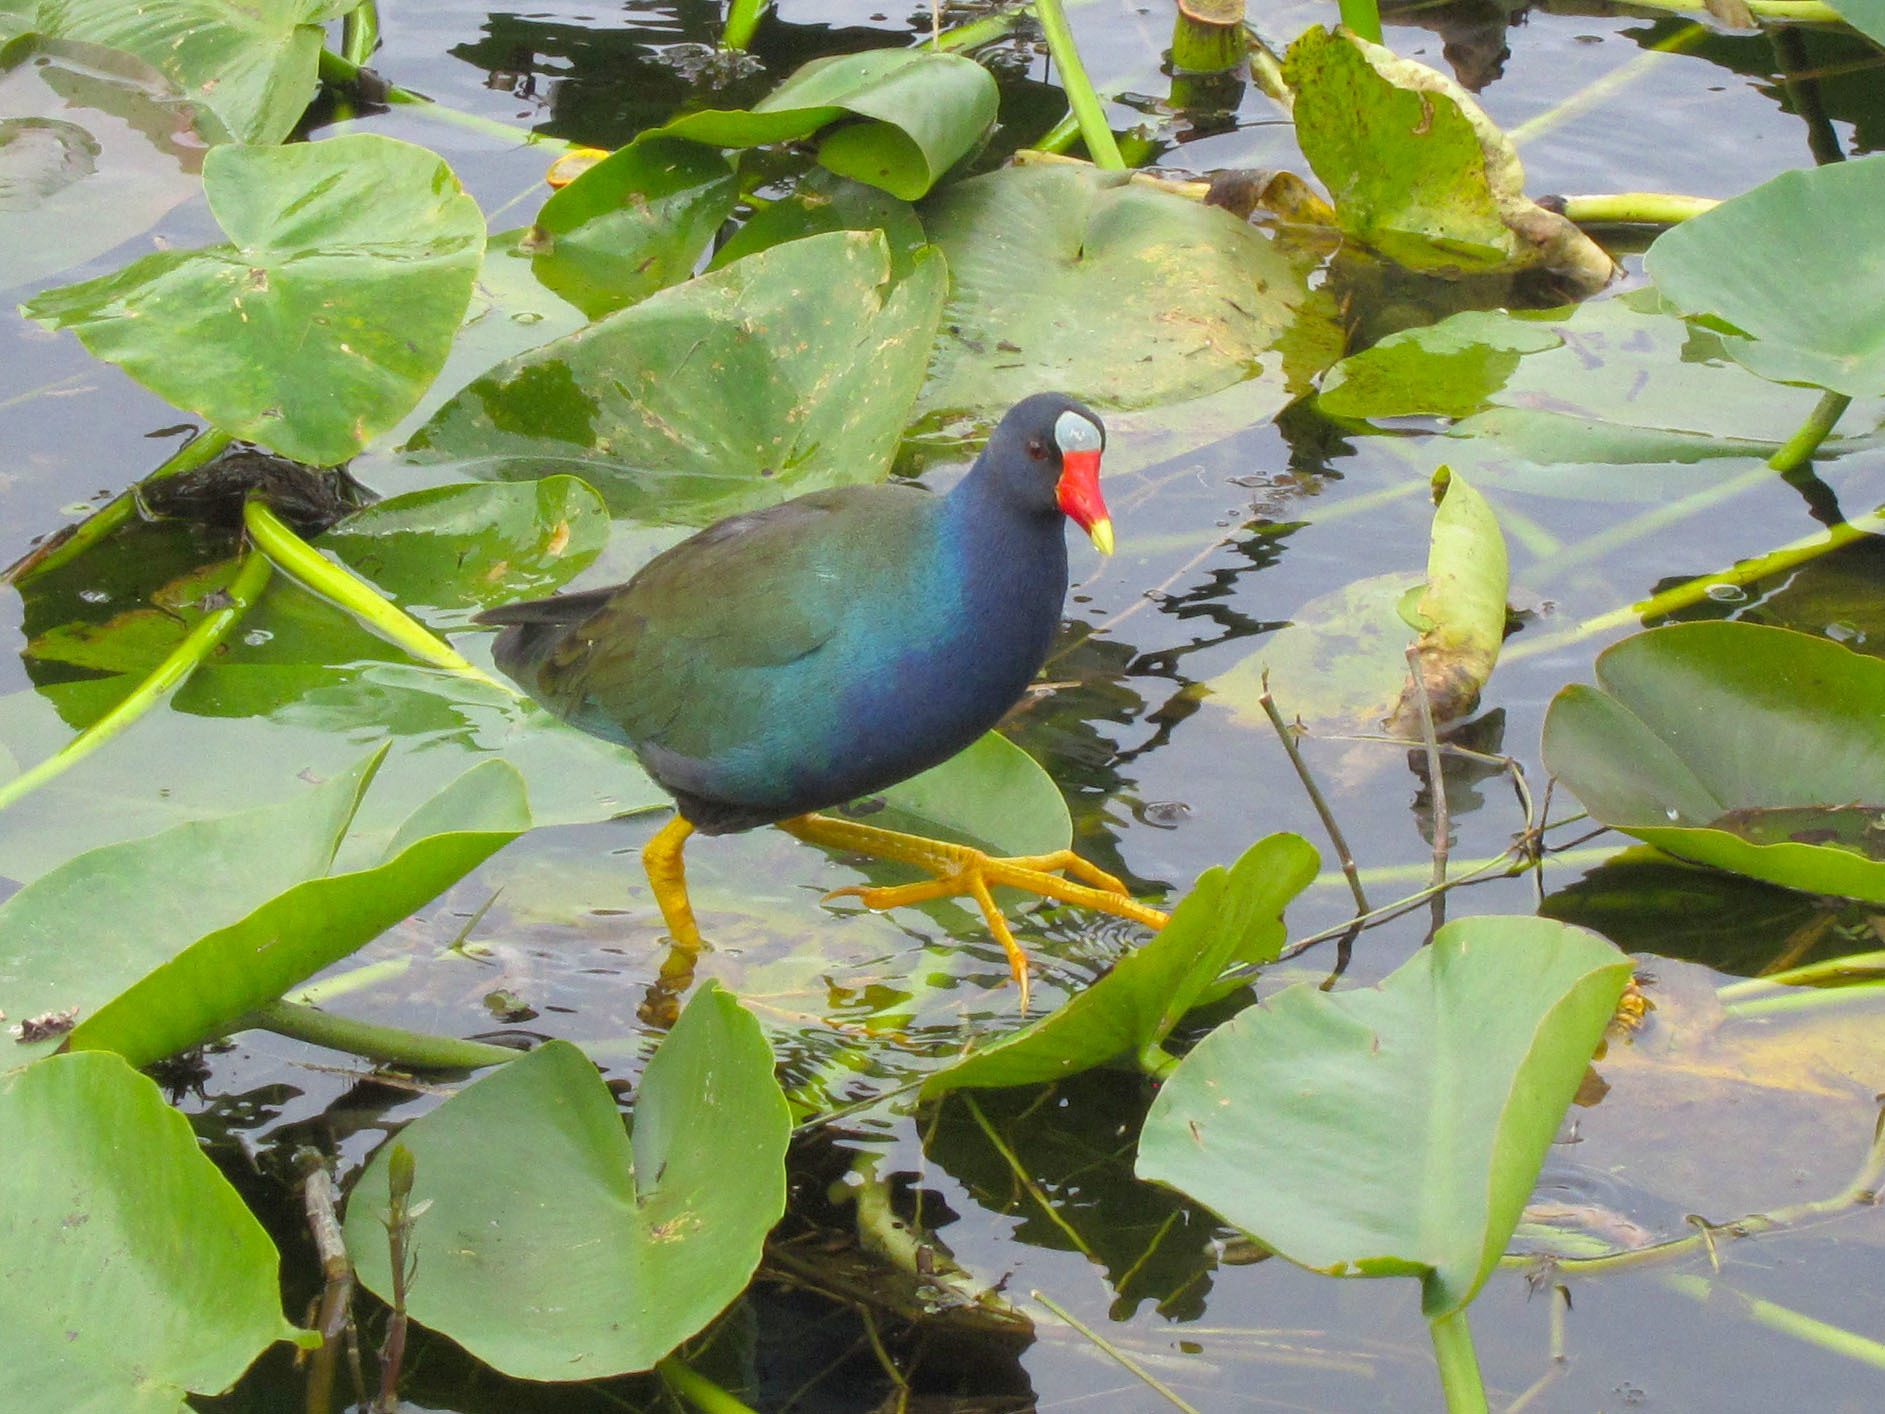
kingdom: Animalia
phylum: Chordata
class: Aves
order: Gruiformes
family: Rallidae
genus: Porphyrio
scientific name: Porphyrio martinica
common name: Purple gallinule
